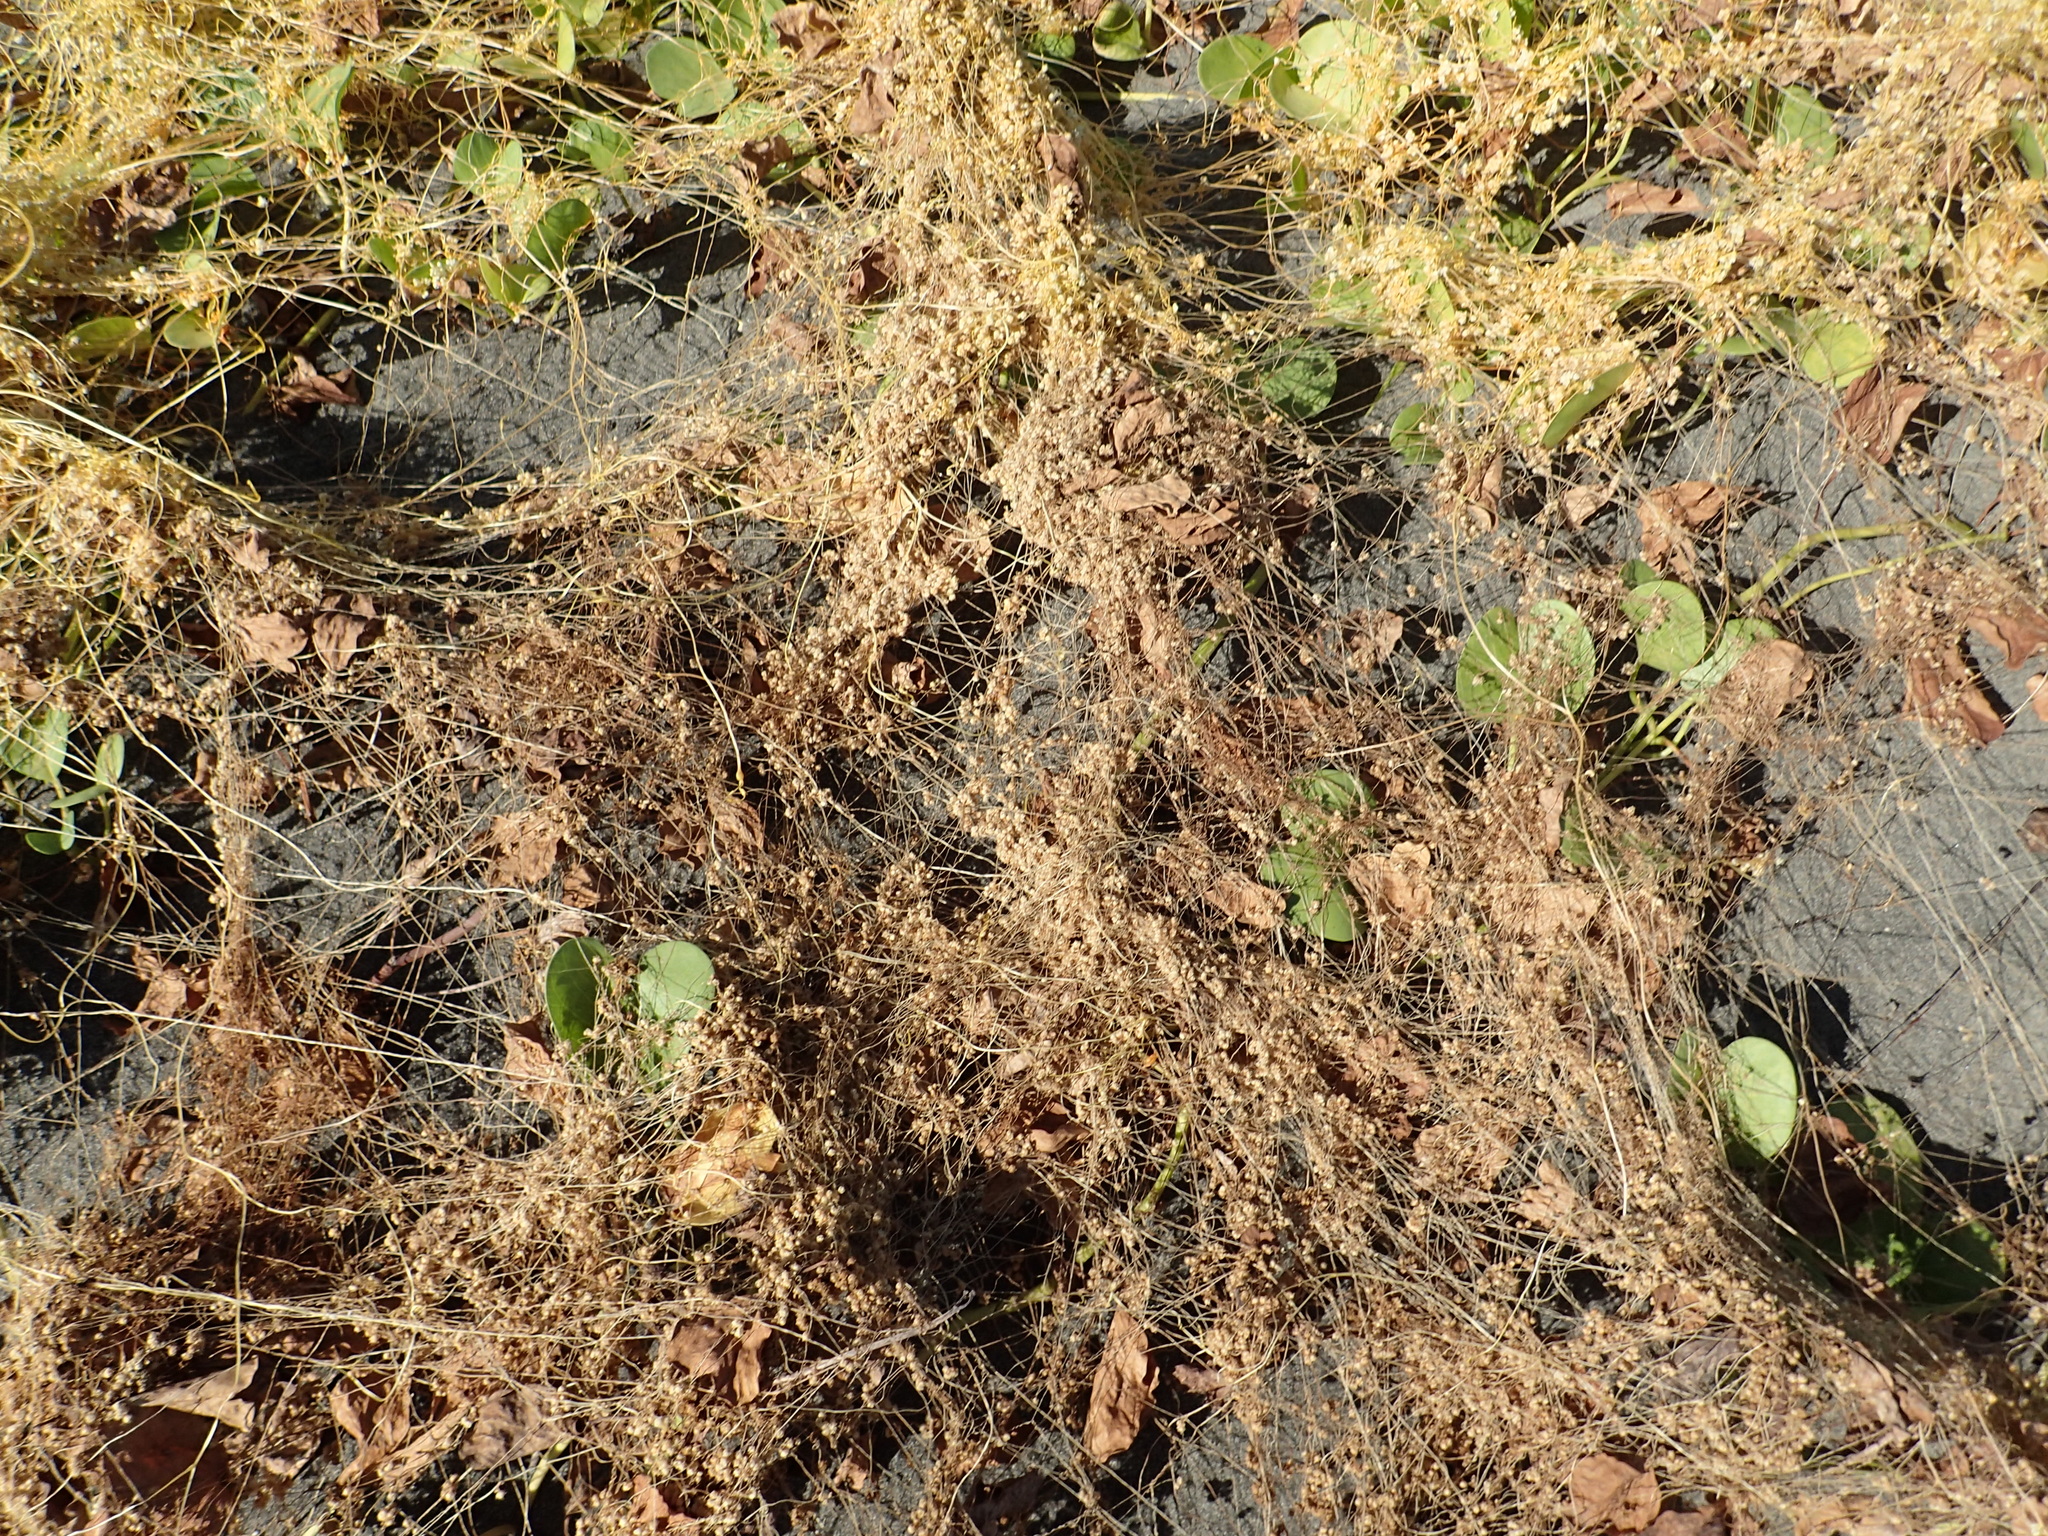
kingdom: Plantae
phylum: Tracheophyta
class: Magnoliopsida
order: Solanales
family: Convolvulaceae
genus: Cuscuta
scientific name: Cuscuta campestris
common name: Yellow dodder
